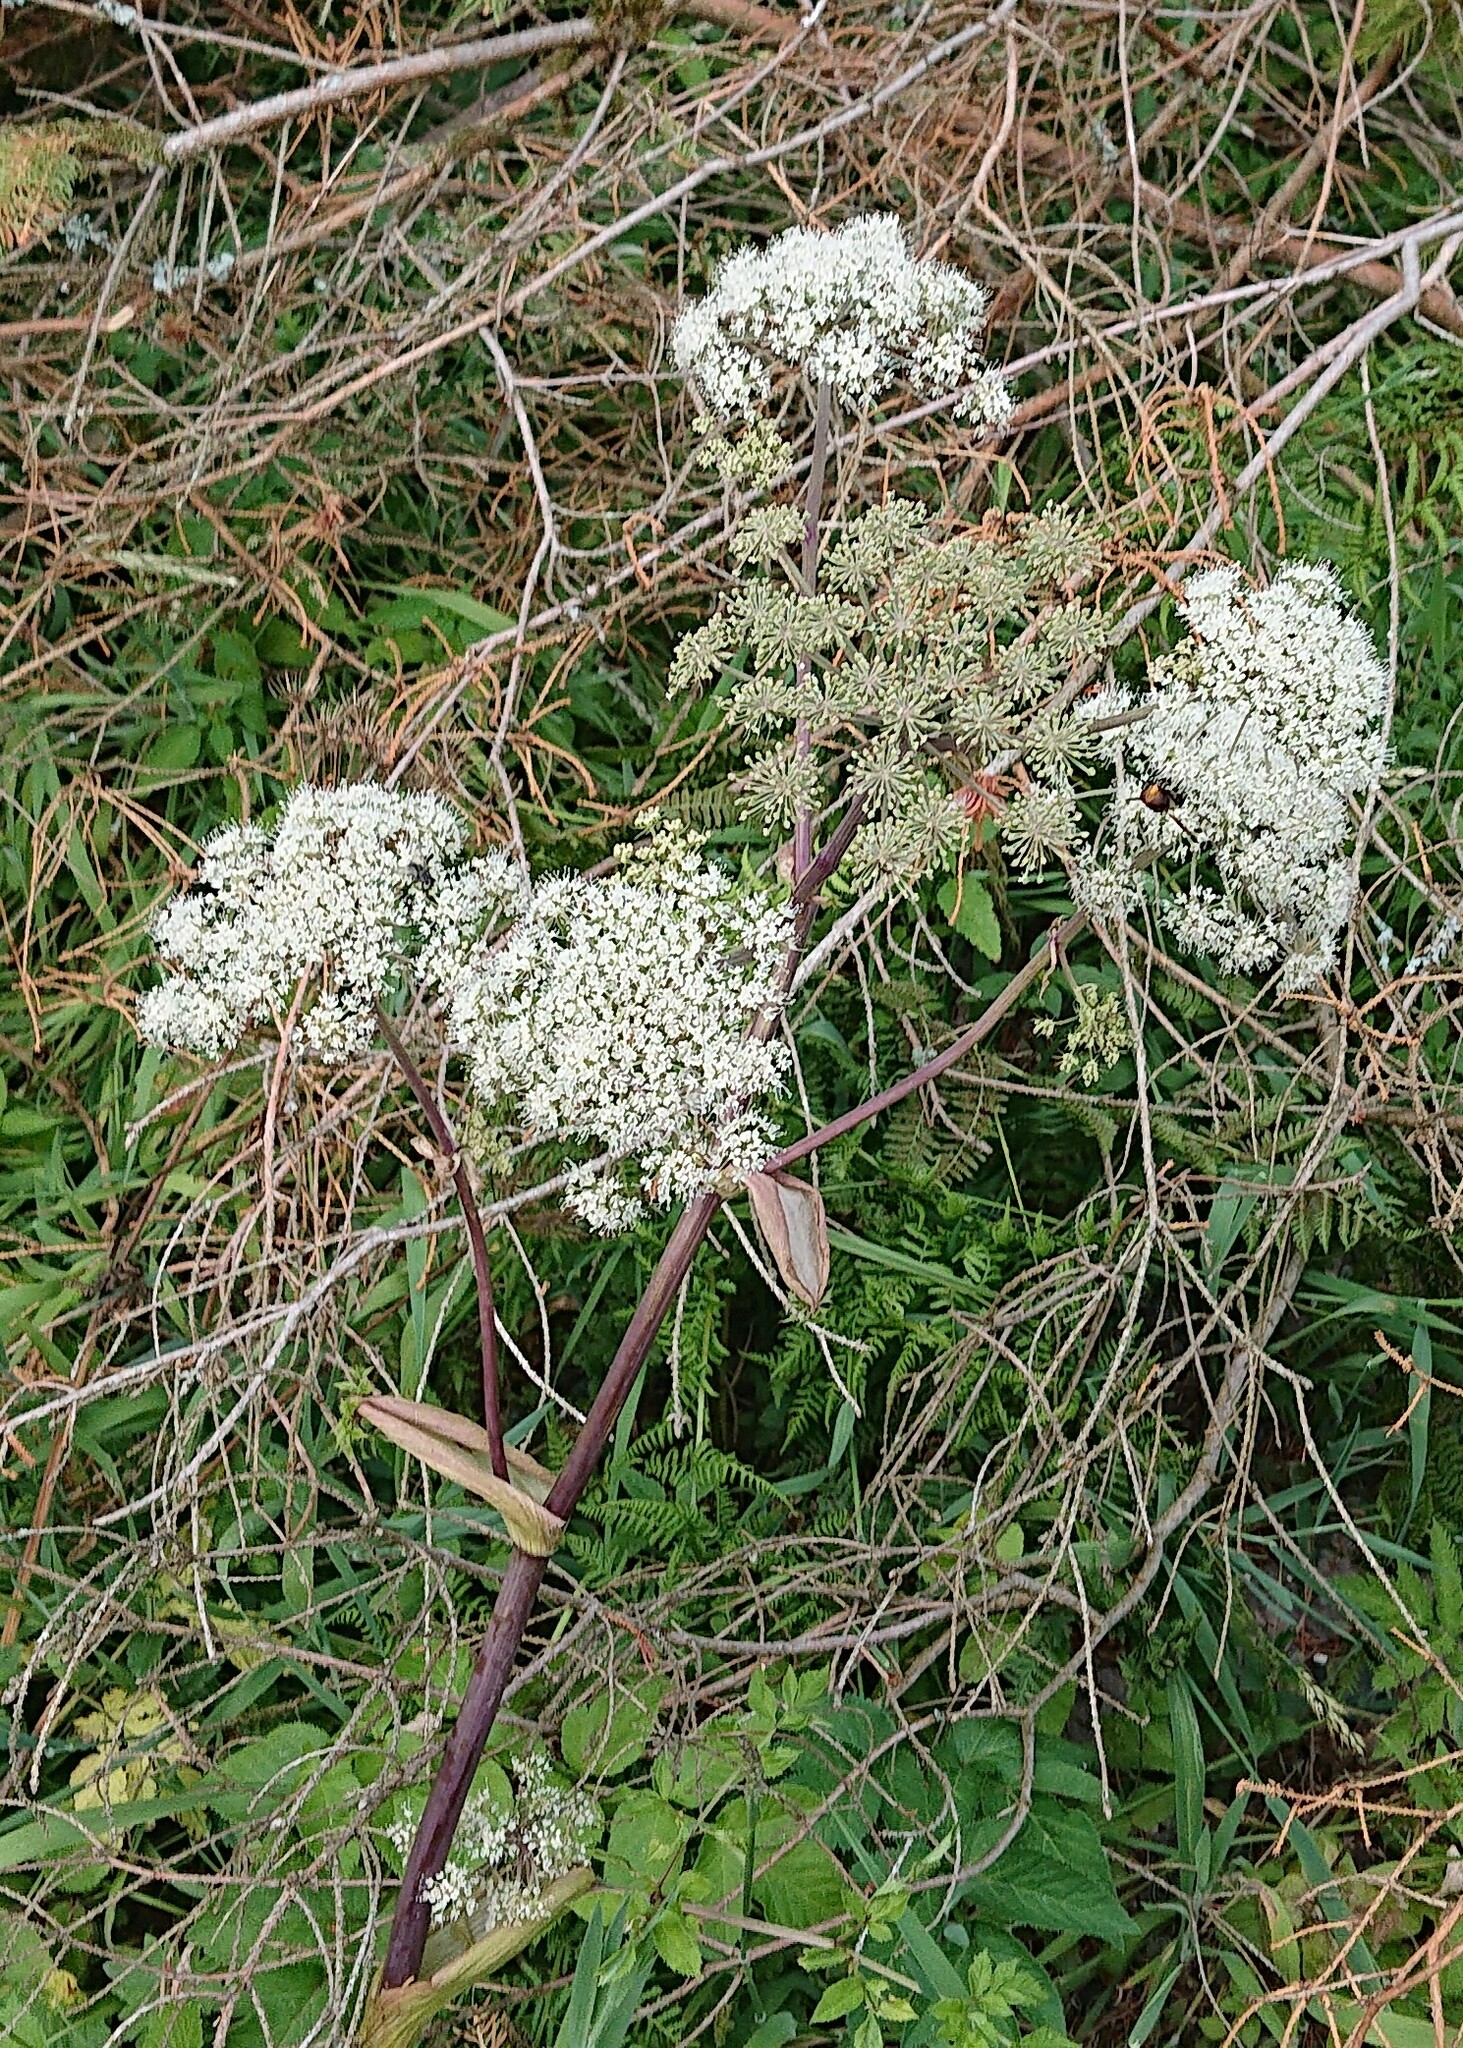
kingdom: Plantae
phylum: Tracheophyta
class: Magnoliopsida
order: Apiales
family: Apiaceae
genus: Angelica
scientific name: Angelica sylvestris
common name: Wild angelica
